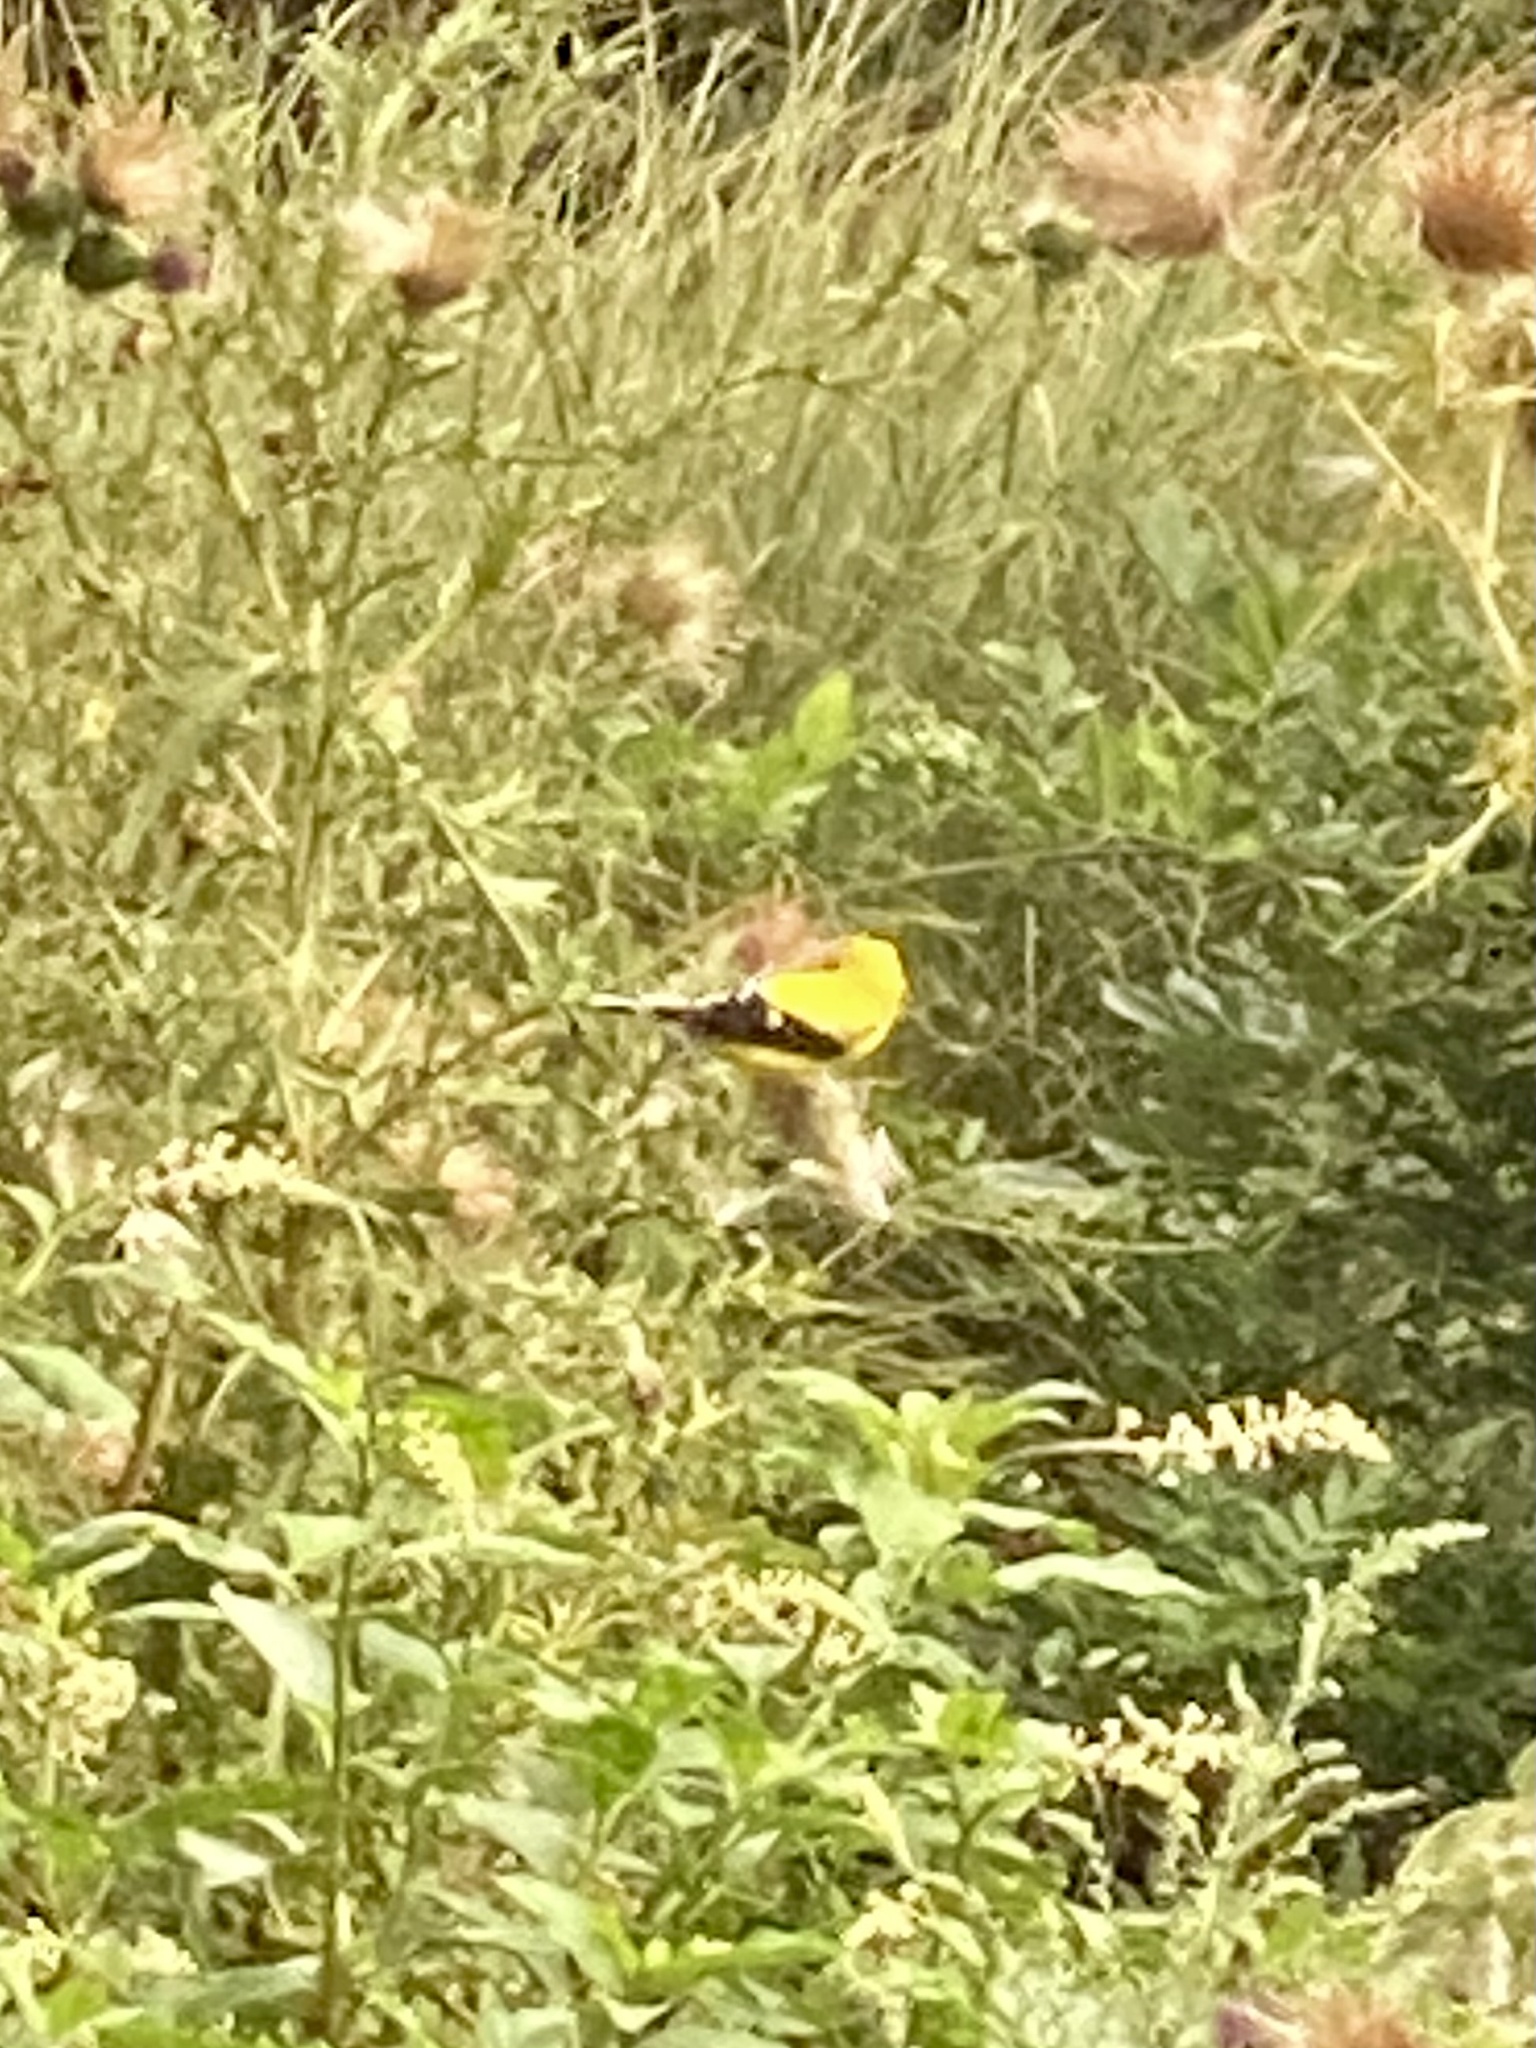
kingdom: Animalia
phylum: Chordata
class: Aves
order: Passeriformes
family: Fringillidae
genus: Spinus
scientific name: Spinus tristis
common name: American goldfinch
